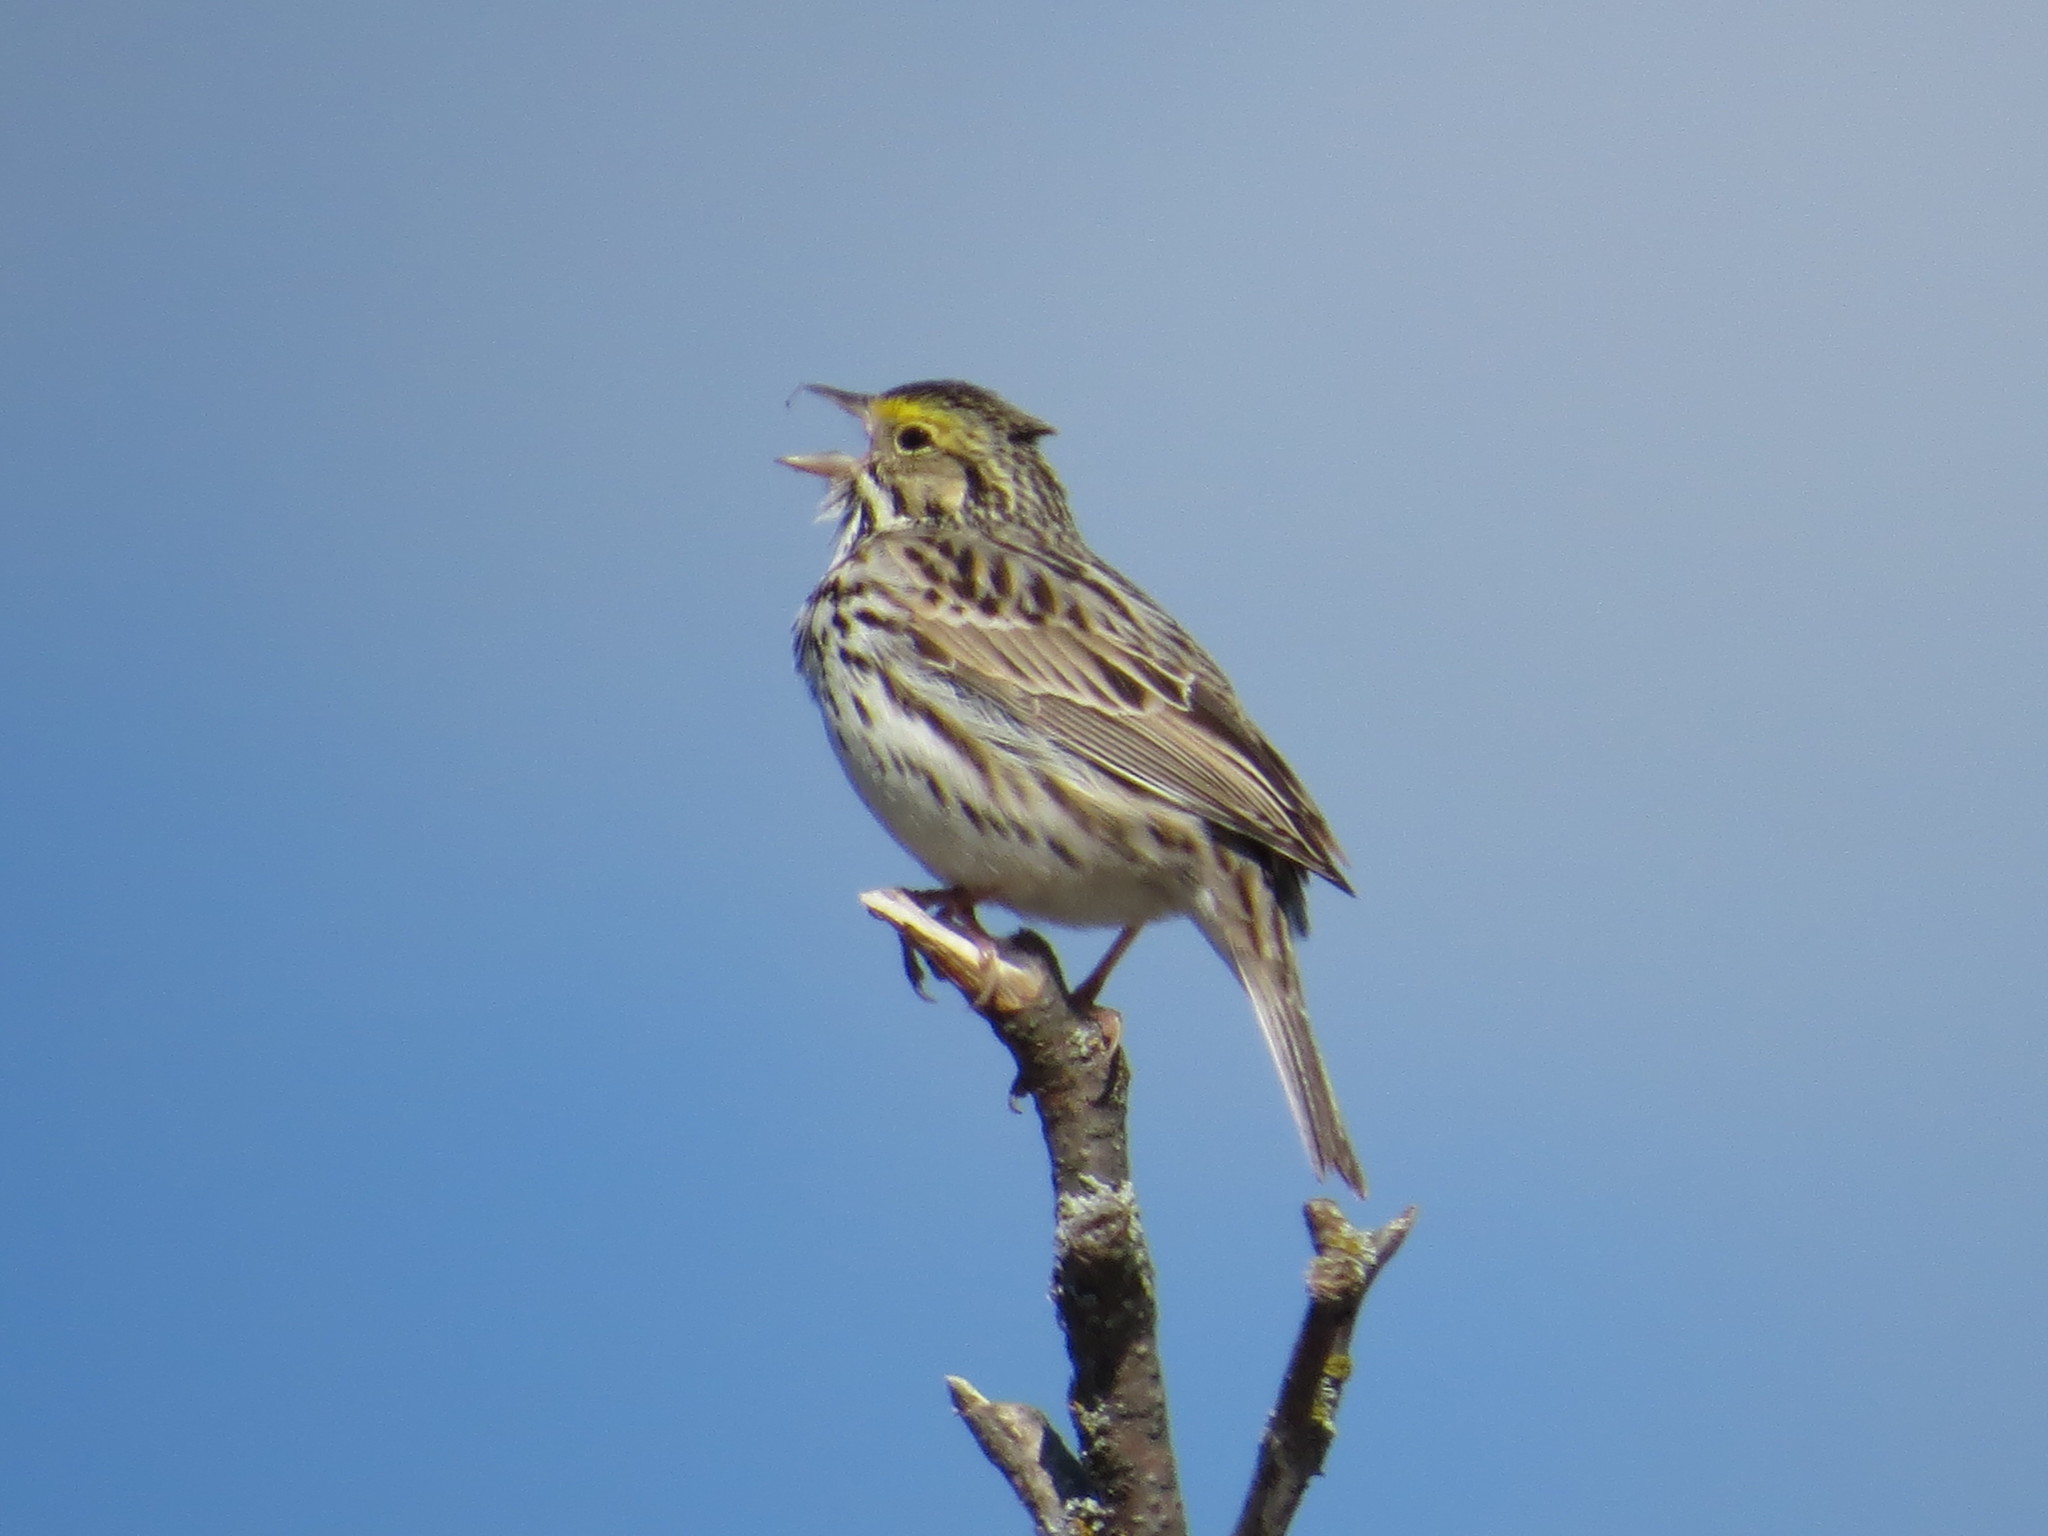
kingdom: Animalia
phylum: Chordata
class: Aves
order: Passeriformes
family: Passerellidae
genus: Passerculus
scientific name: Passerculus sandwichensis
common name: Savannah sparrow
